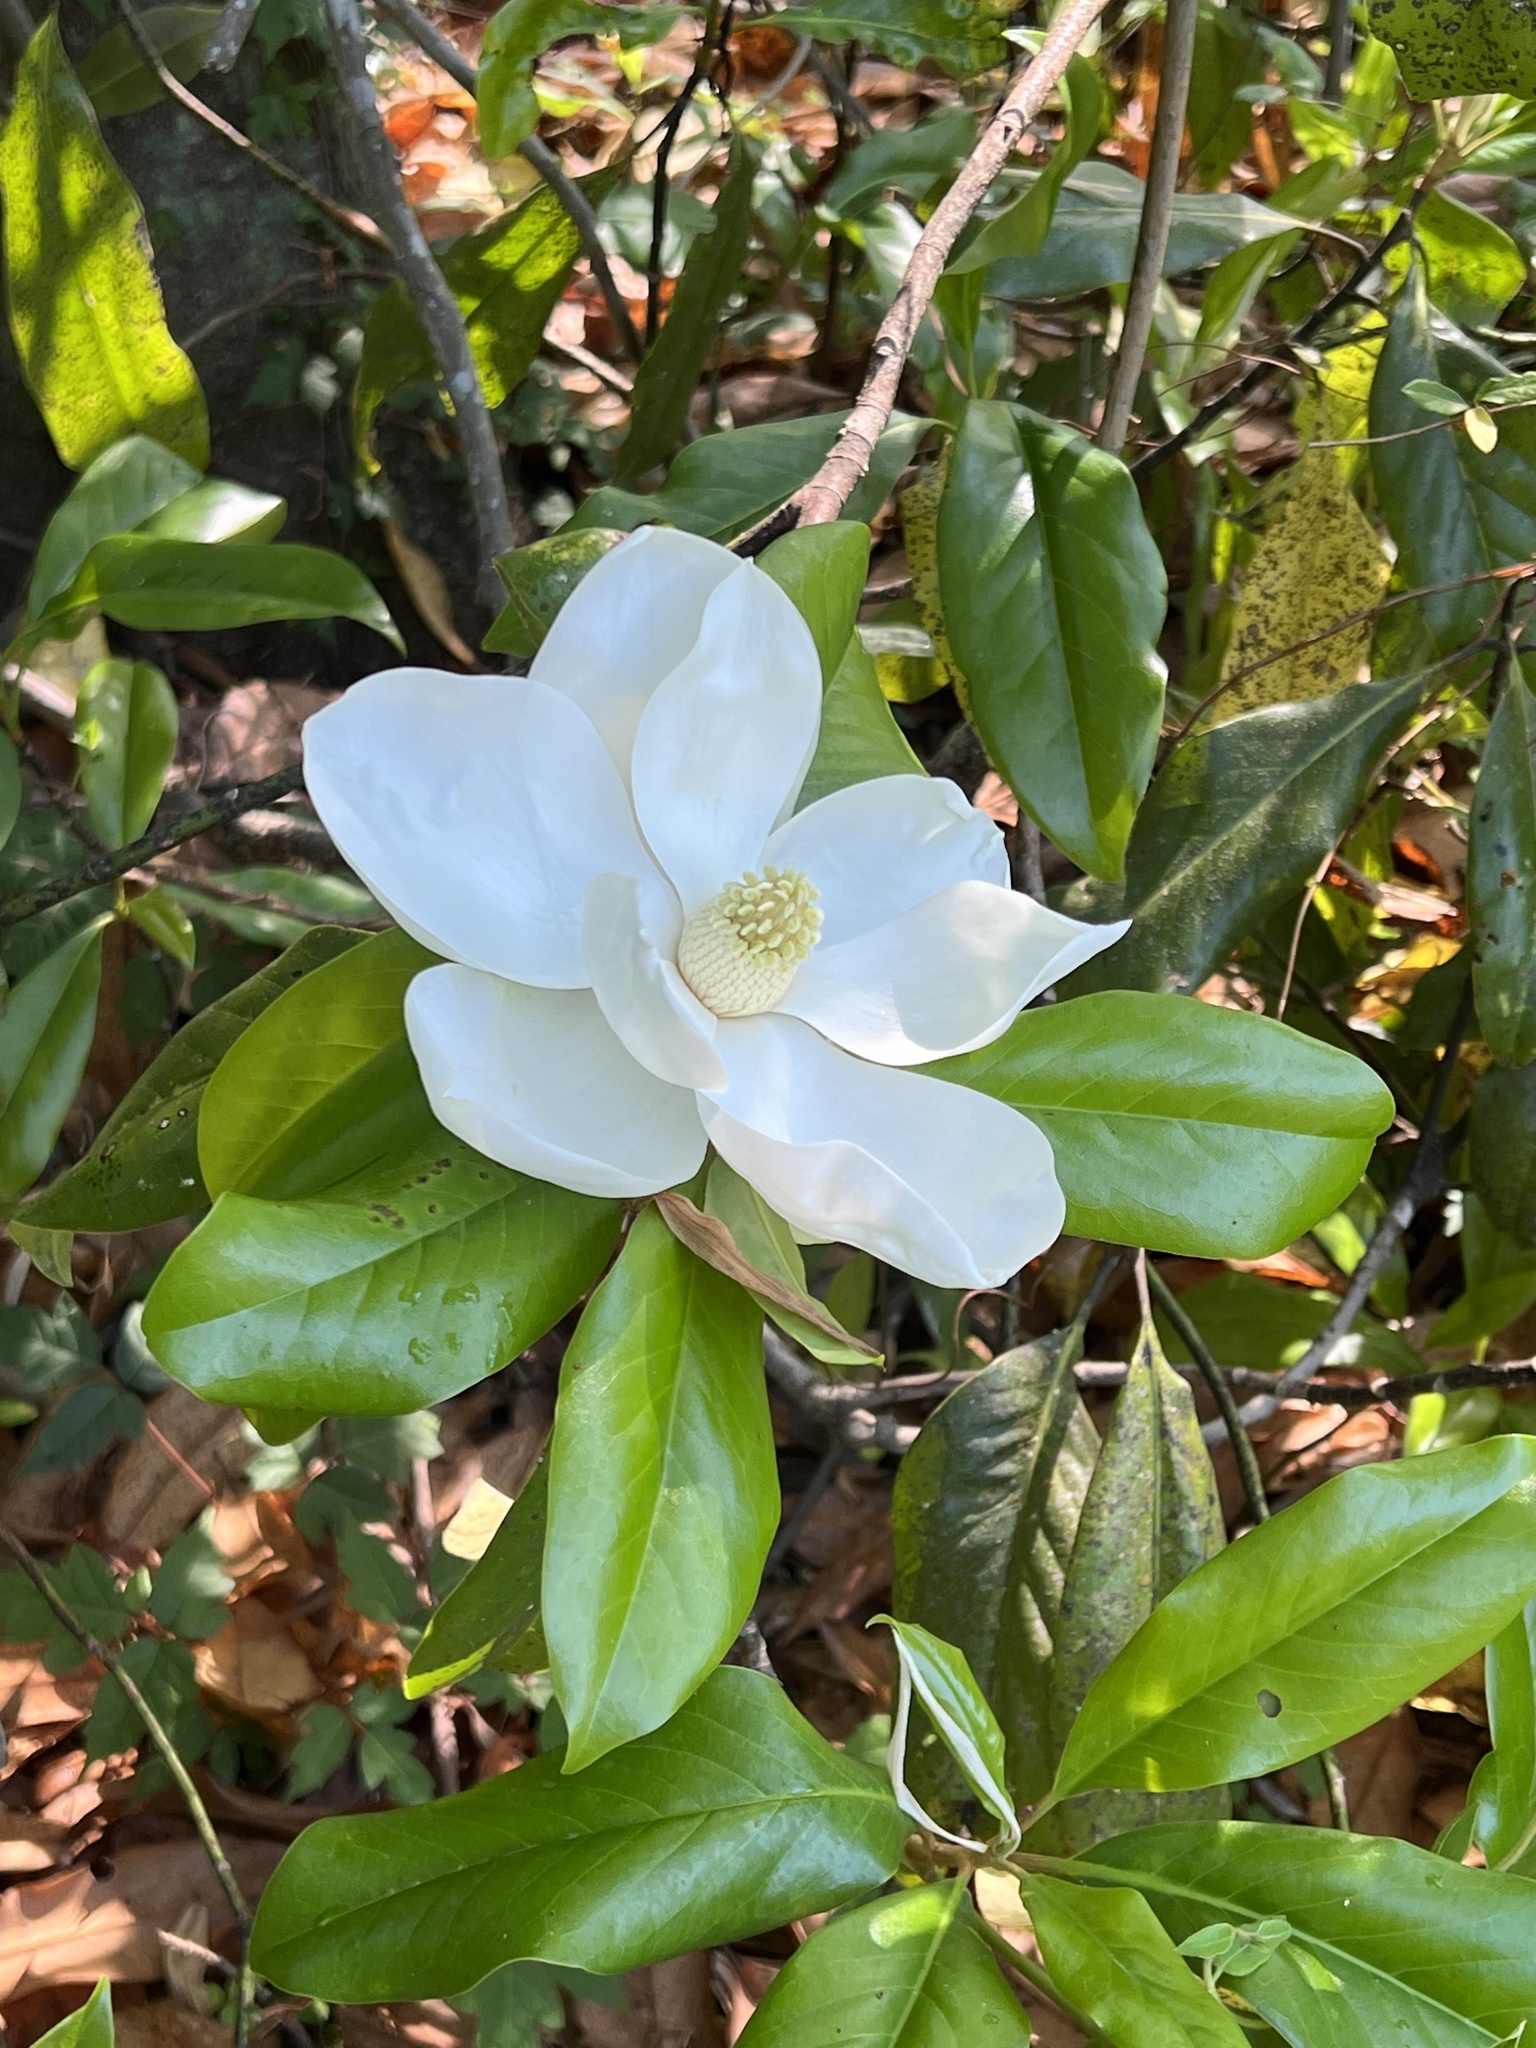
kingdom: Plantae
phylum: Tracheophyta
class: Magnoliopsida
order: Magnoliales
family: Magnoliaceae
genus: Magnolia
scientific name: Magnolia grandiflora
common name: Southern magnolia
